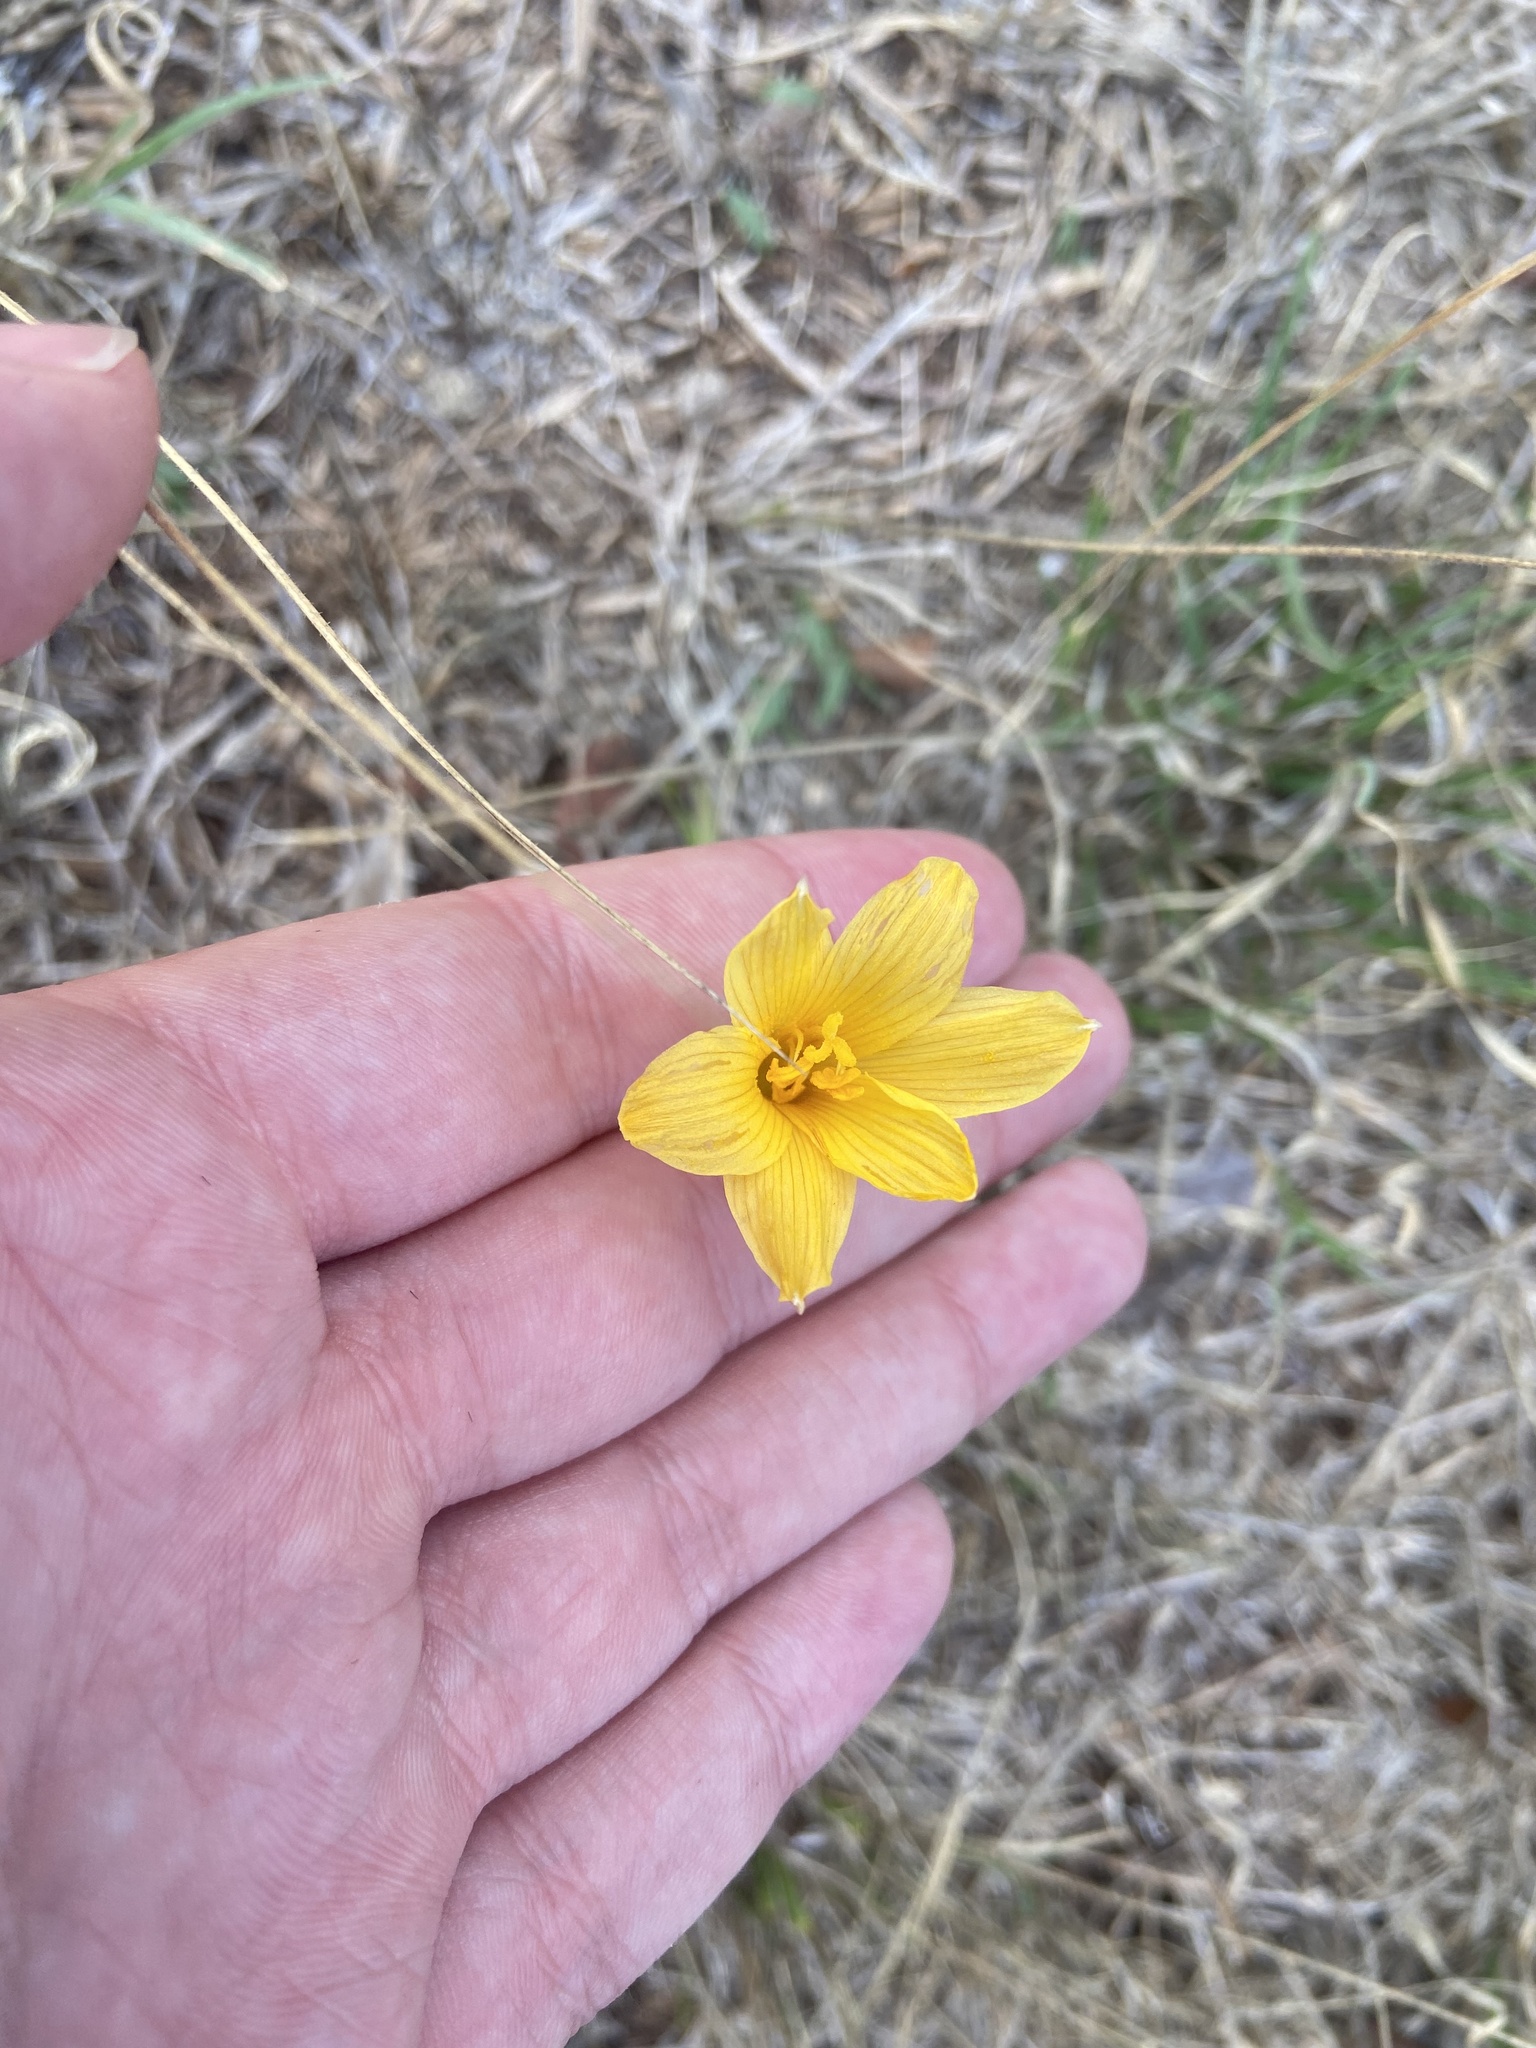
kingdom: Plantae
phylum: Tracheophyta
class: Liliopsida
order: Asparagales
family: Amaryllidaceae
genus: Zephyranthes
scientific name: Zephyranthes tubispatha
